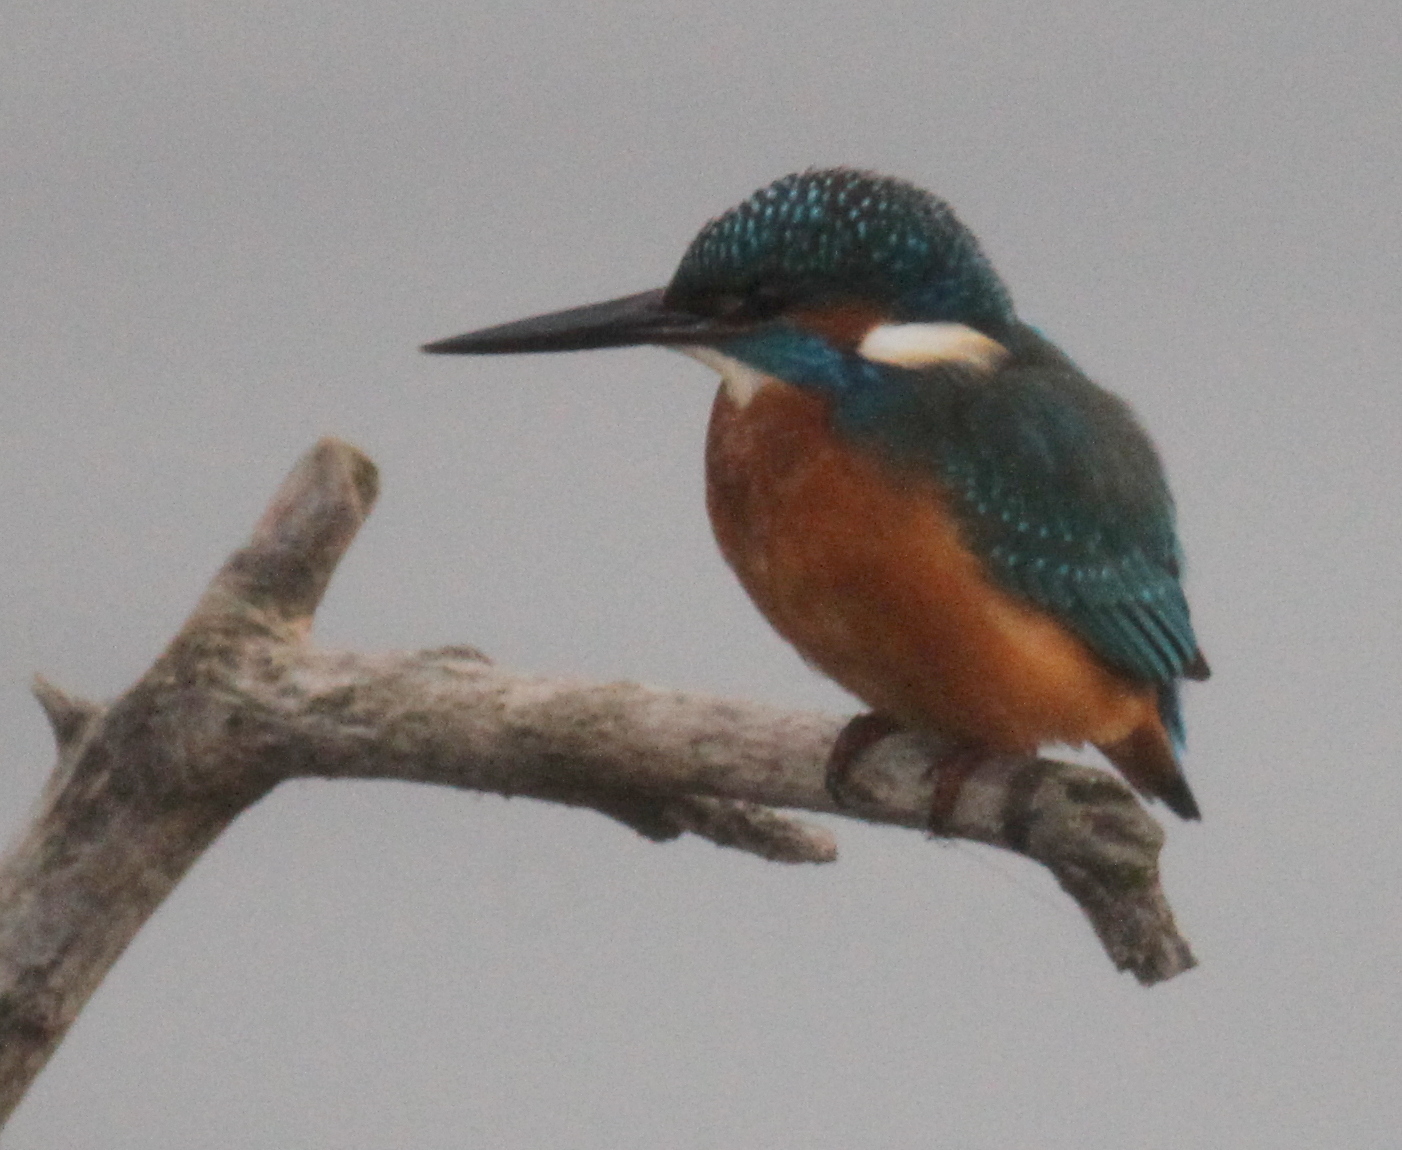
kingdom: Animalia
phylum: Chordata
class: Aves
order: Coraciiformes
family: Alcedinidae
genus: Alcedo
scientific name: Alcedo atthis
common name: Common kingfisher
